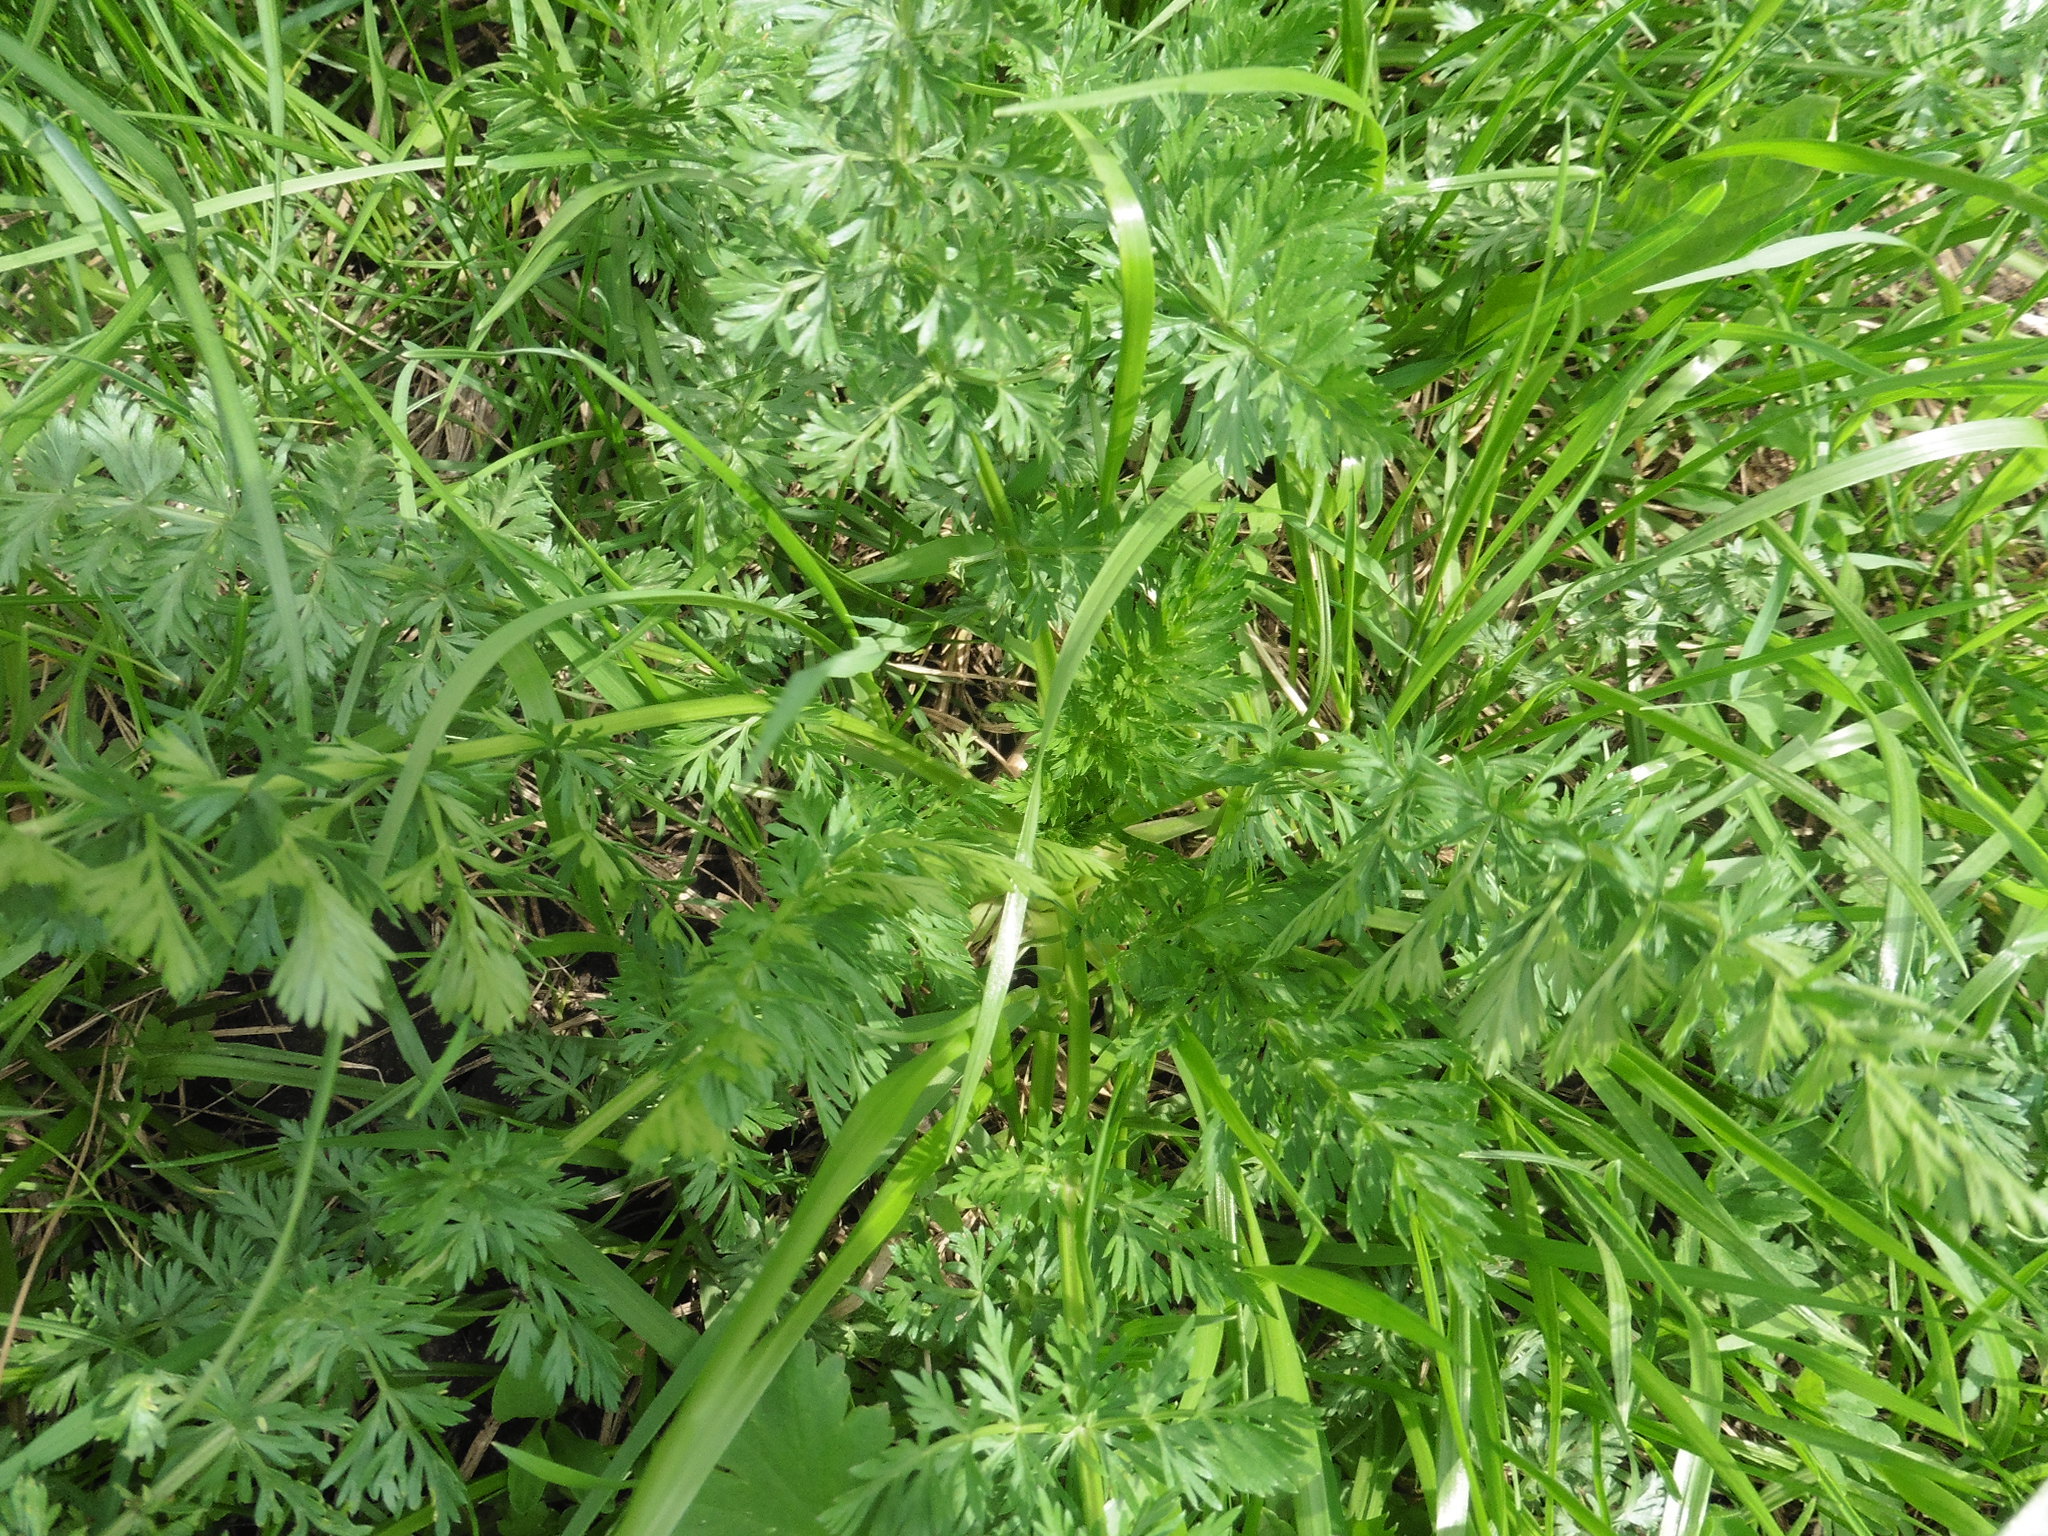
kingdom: Plantae
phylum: Tracheophyta
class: Magnoliopsida
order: Apiales
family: Apiaceae
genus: Carum
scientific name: Carum carvi
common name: Caraway
